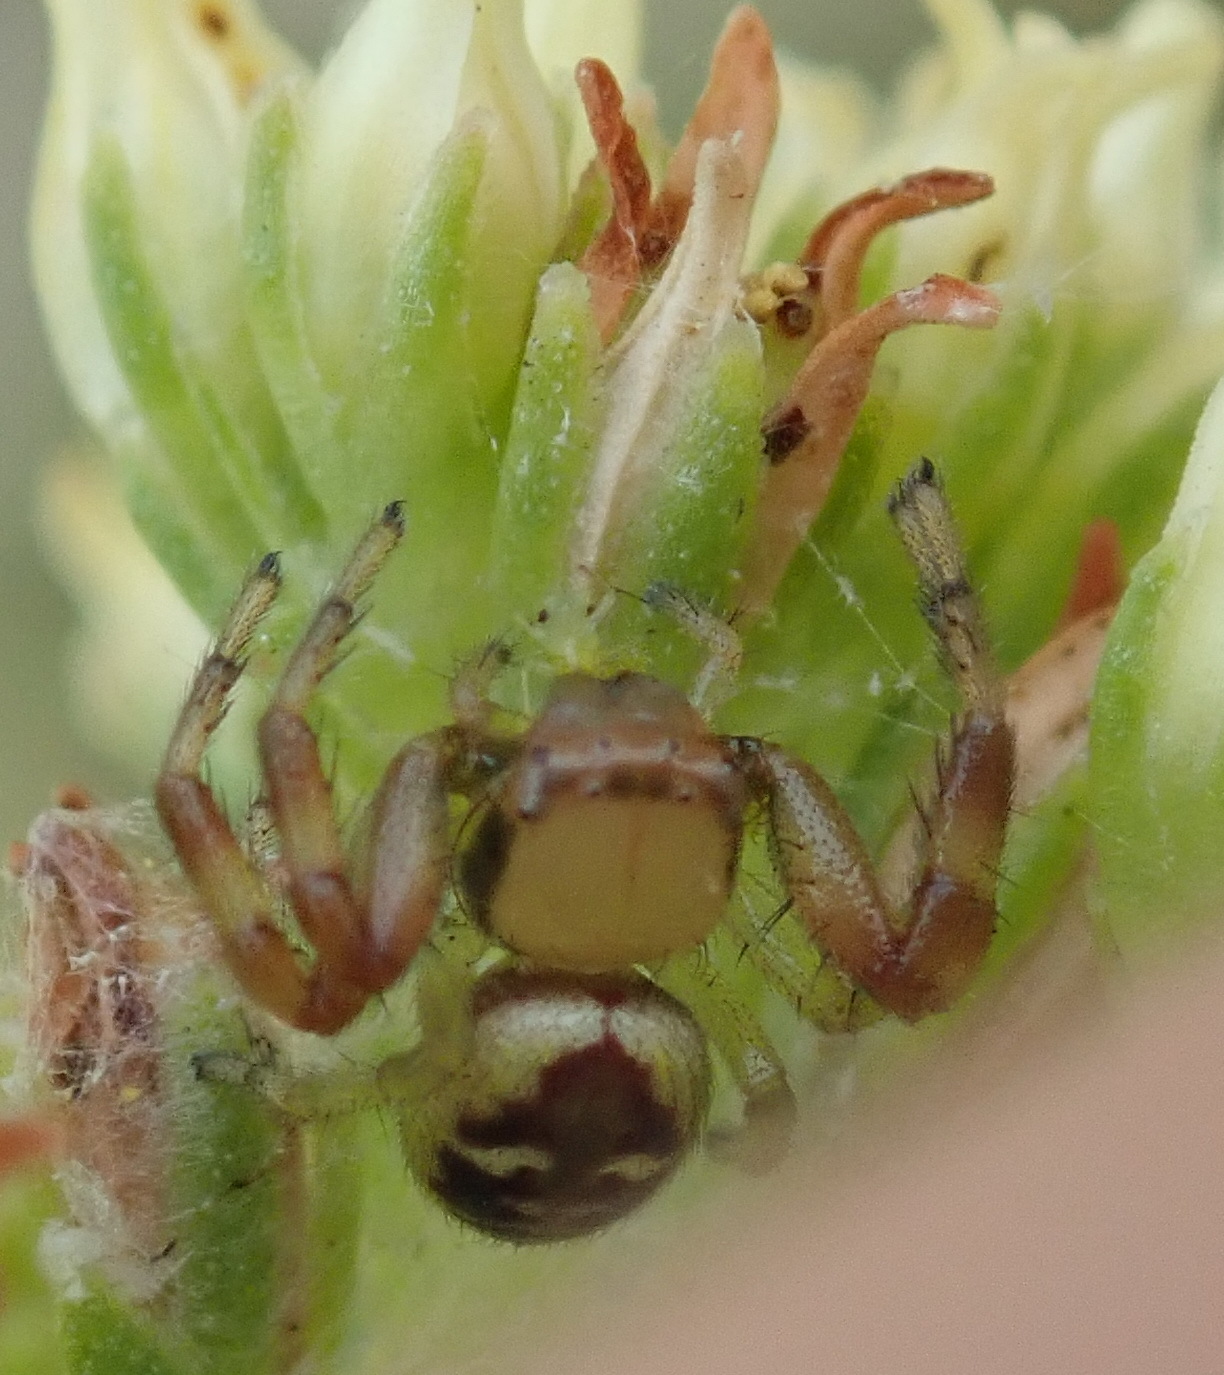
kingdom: Animalia
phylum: Arthropoda
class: Arachnida
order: Araneae
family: Thomisidae
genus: Synema
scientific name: Synema imitatrix
